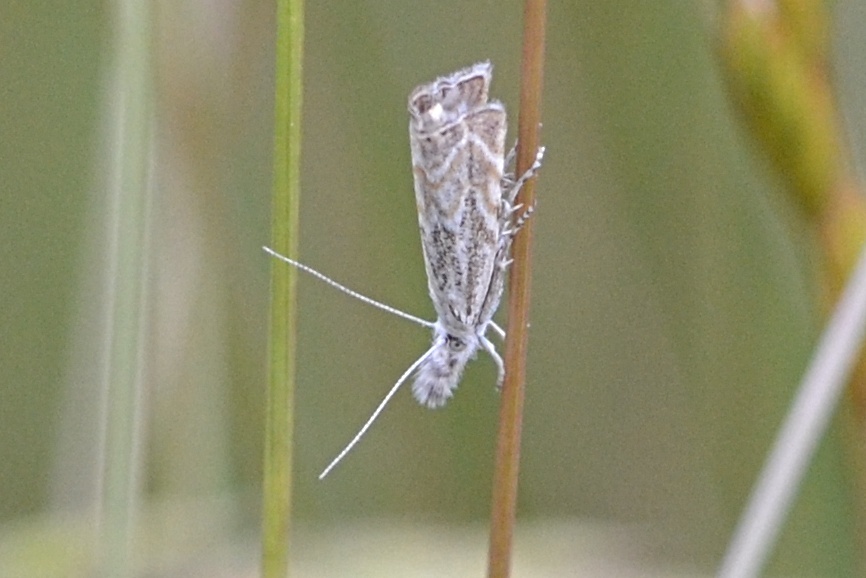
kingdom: Animalia
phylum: Arthropoda
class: Insecta
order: Lepidoptera
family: Crambidae
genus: Platytes
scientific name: Platytes cerusella
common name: Little grass-veneer
